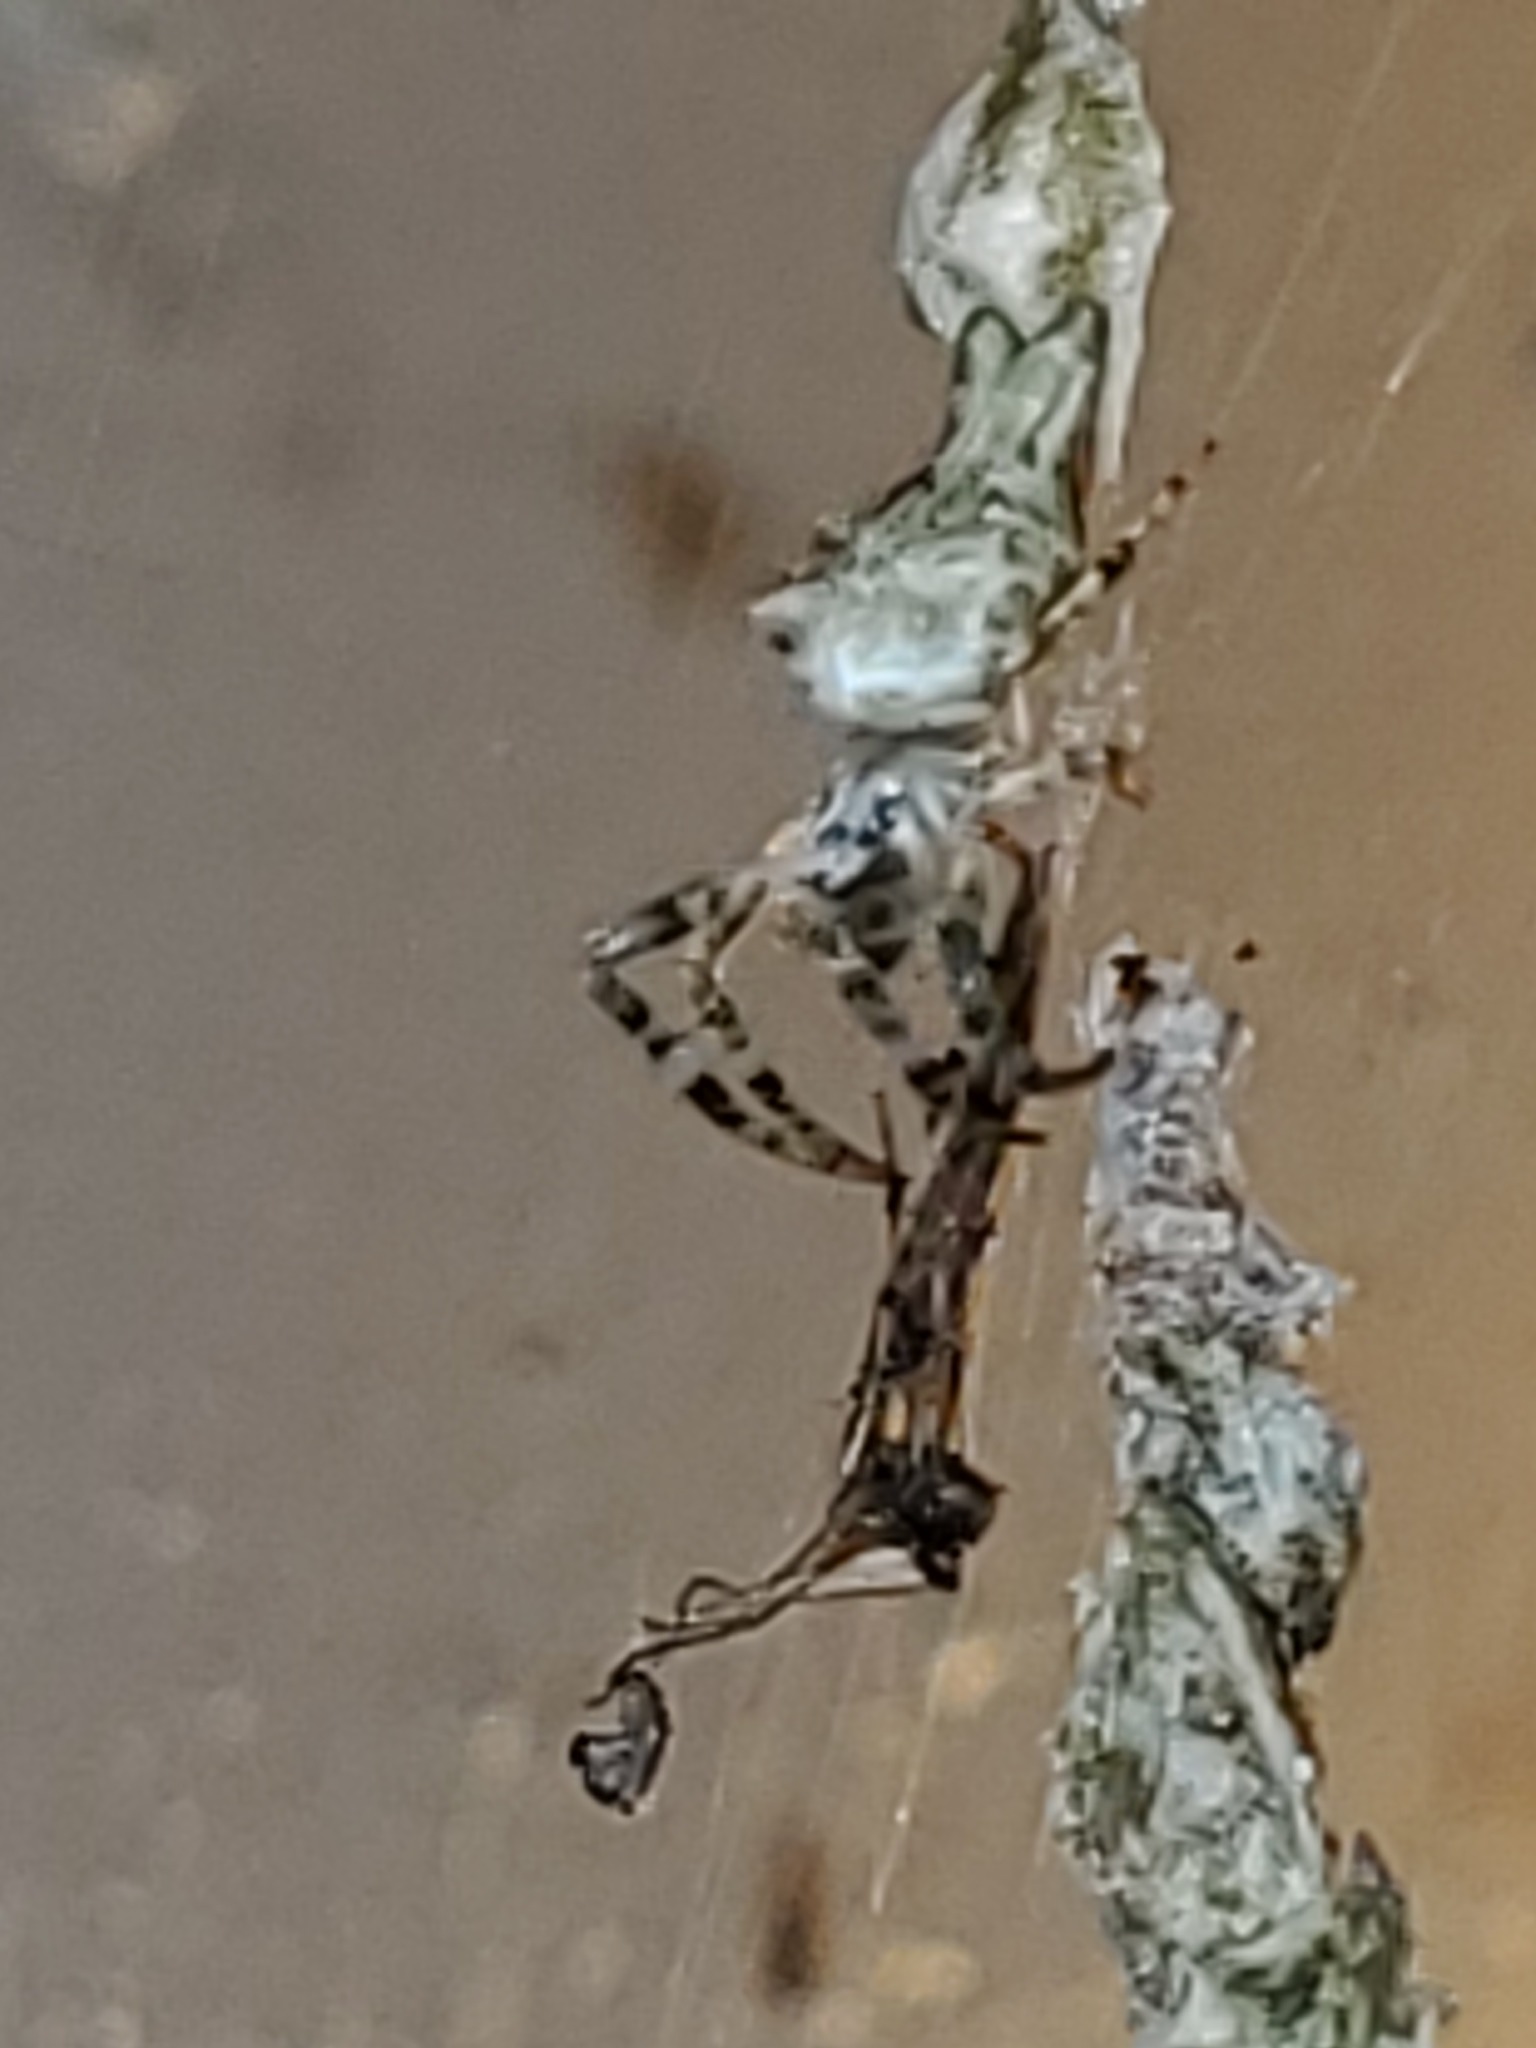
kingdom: Animalia
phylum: Arthropoda
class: Arachnida
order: Araneae
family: Araneidae
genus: Allocyclosa
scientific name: Allocyclosa bifurca
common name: Orb weavers
